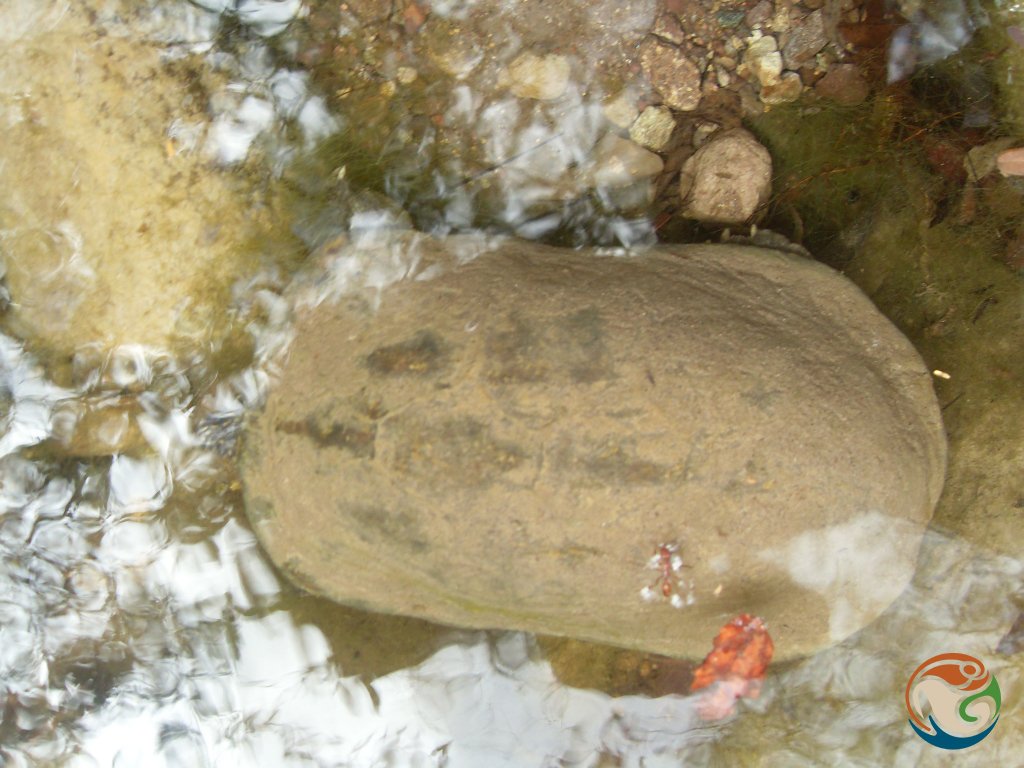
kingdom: Animalia
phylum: Chordata
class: Testudines
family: Kinosternidae
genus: Kinosternon
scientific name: Kinosternon integrum
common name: Mexican mud turtle
